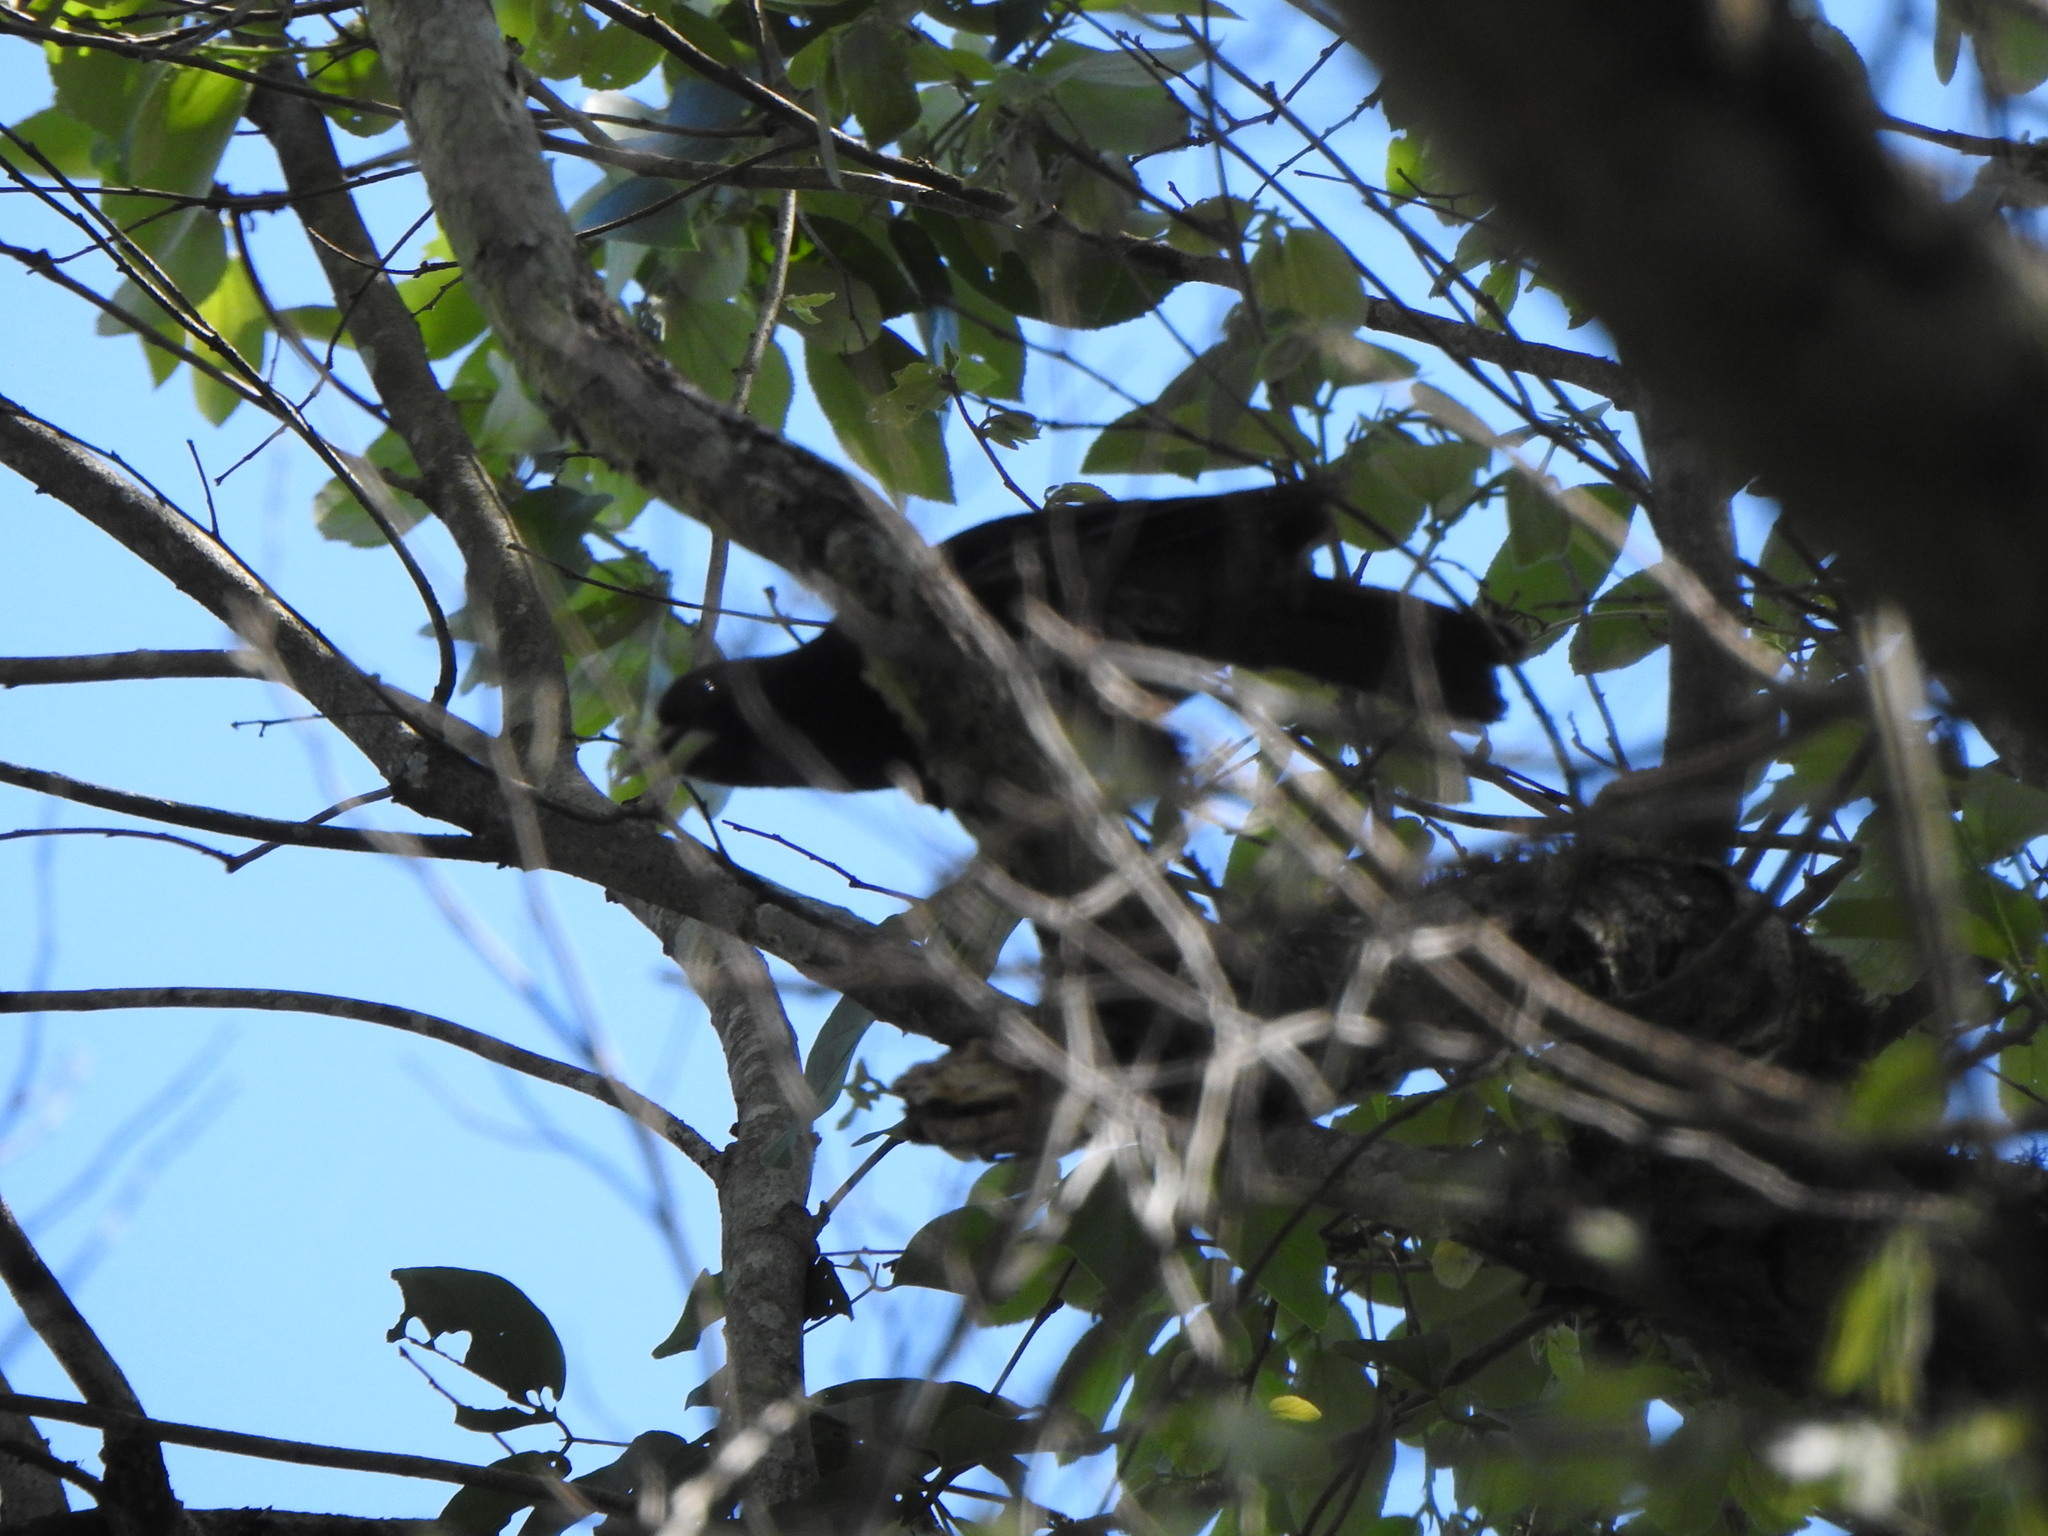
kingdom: Animalia
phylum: Chordata
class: Aves
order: Passeriformes
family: Icteridae
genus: Cacicus
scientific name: Cacicus haemorrhous
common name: Red-rumped cacique
